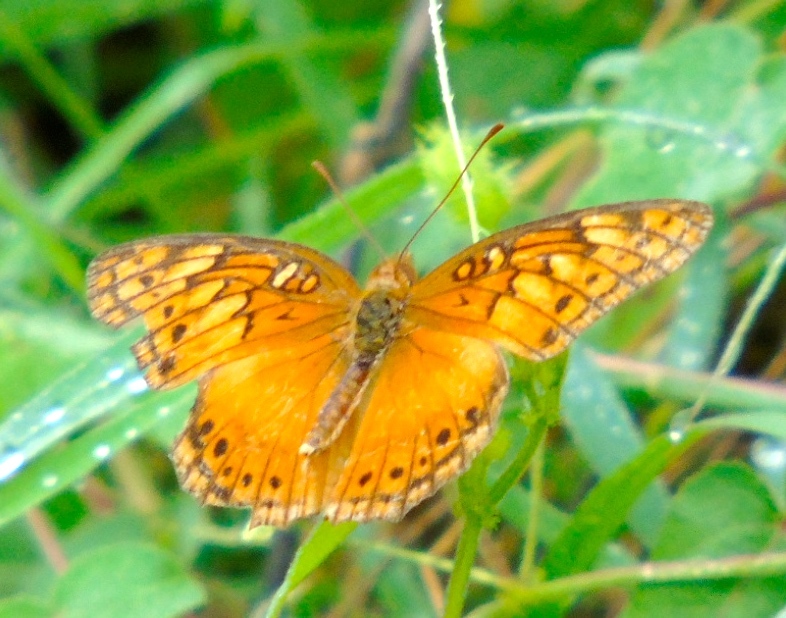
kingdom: Animalia
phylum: Arthropoda
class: Insecta
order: Lepidoptera
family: Nymphalidae
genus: Euptoieta
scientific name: Euptoieta hegesia
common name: Mexican fritillary
